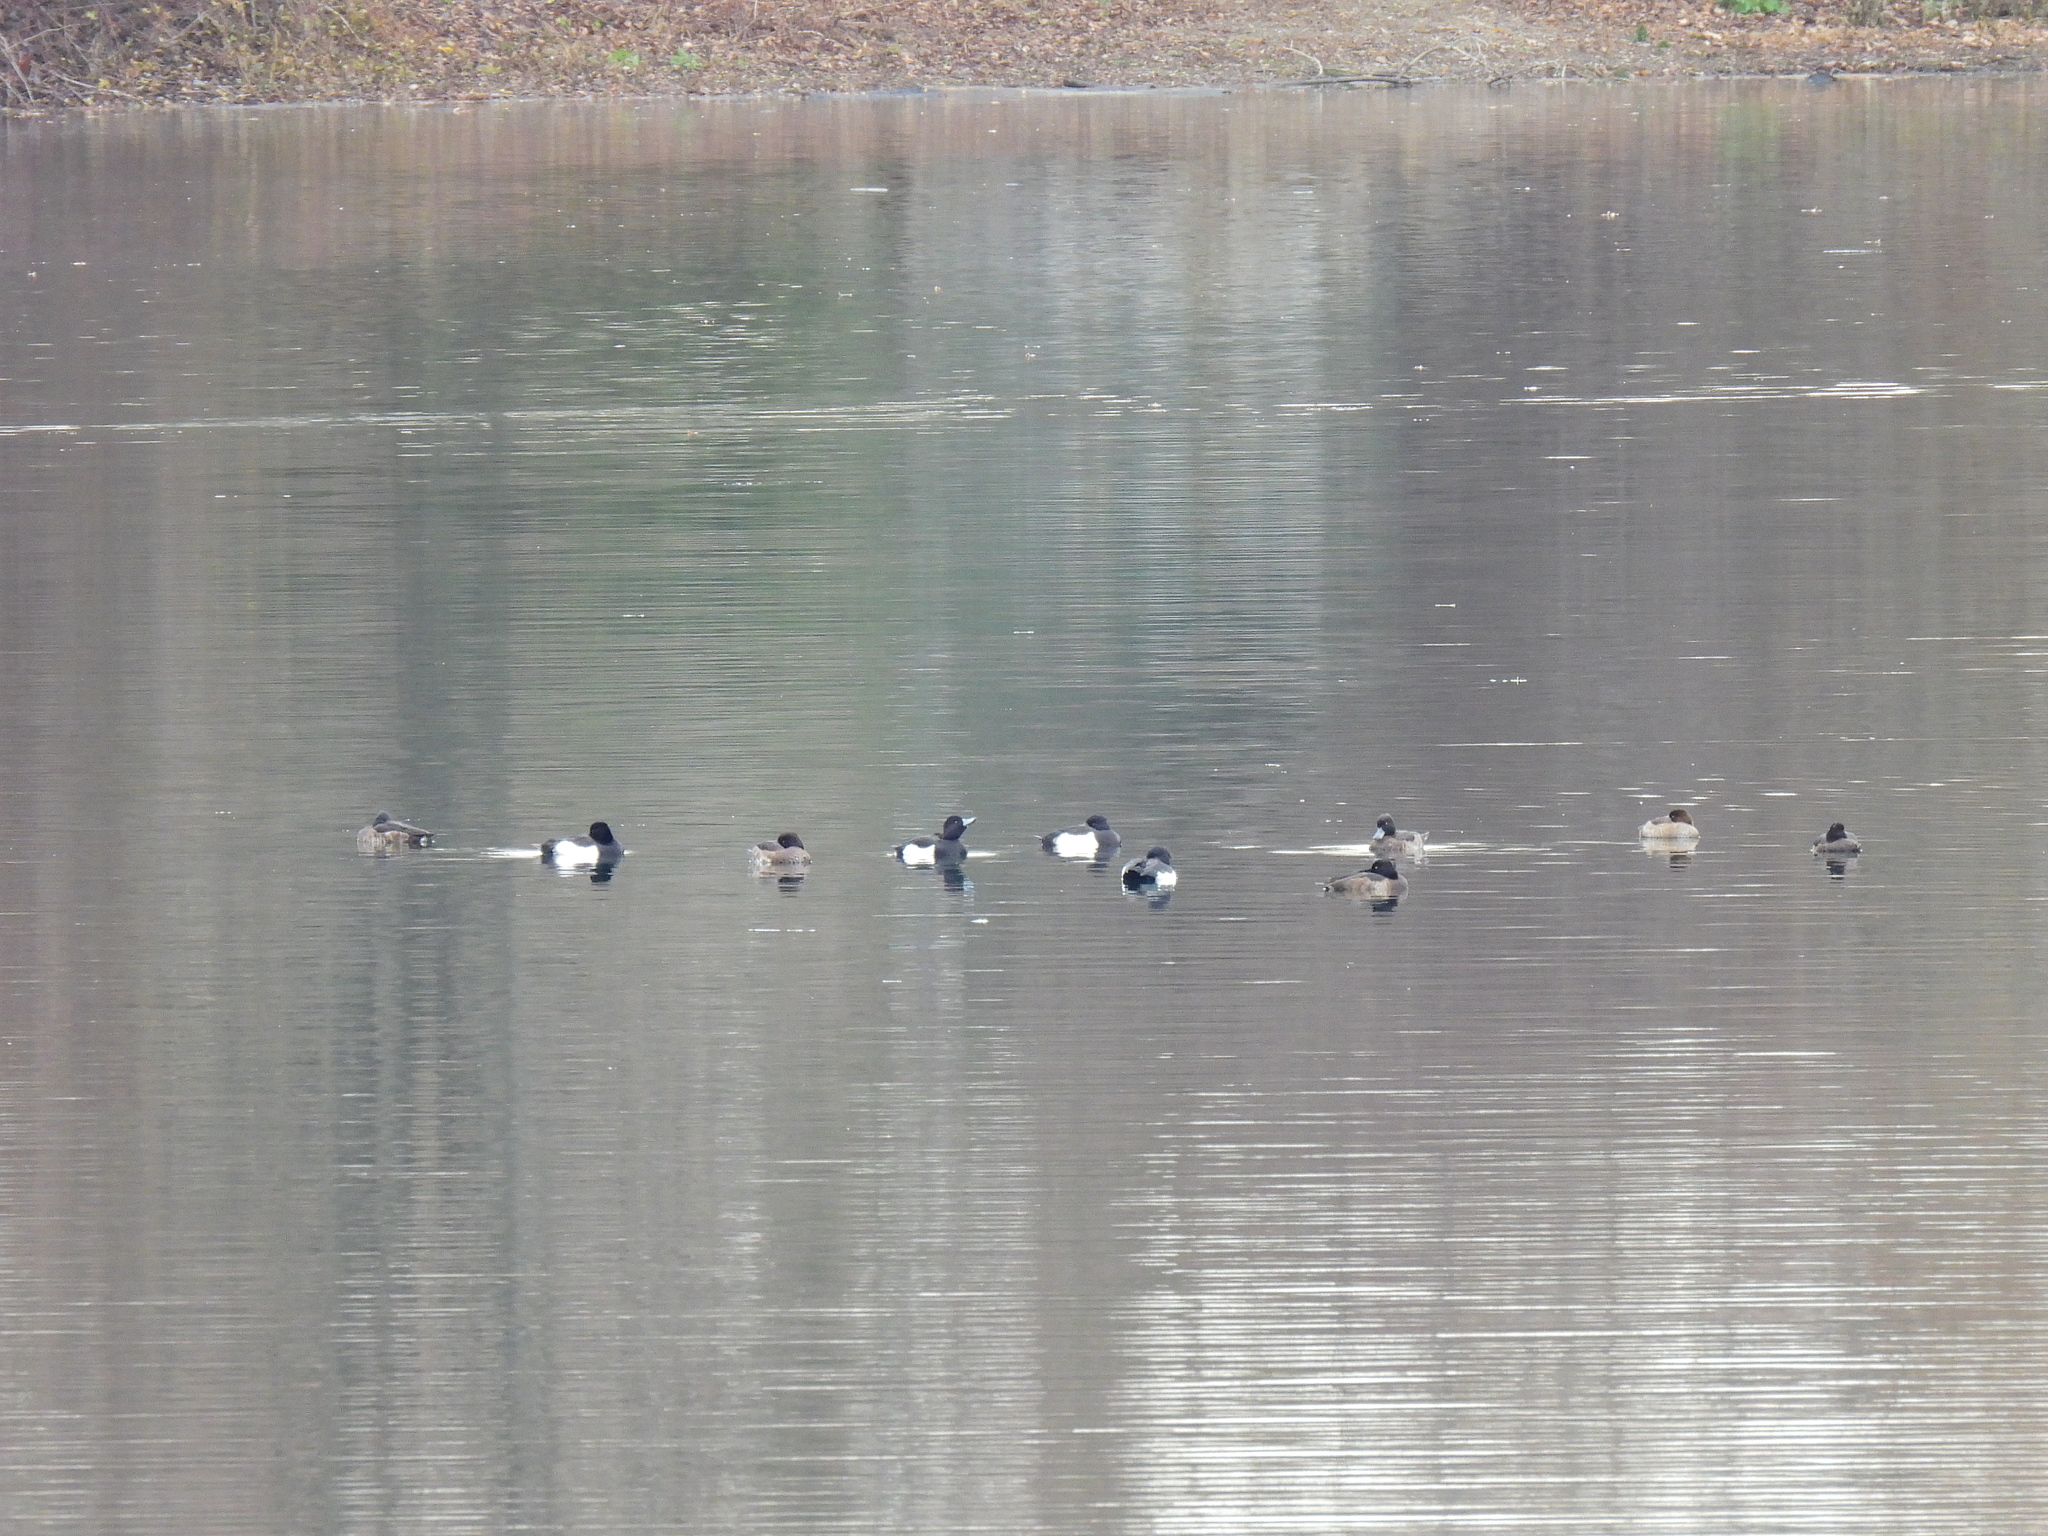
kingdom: Animalia
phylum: Chordata
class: Aves
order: Anseriformes
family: Anatidae
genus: Aythya
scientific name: Aythya fuligula
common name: Tufted duck
